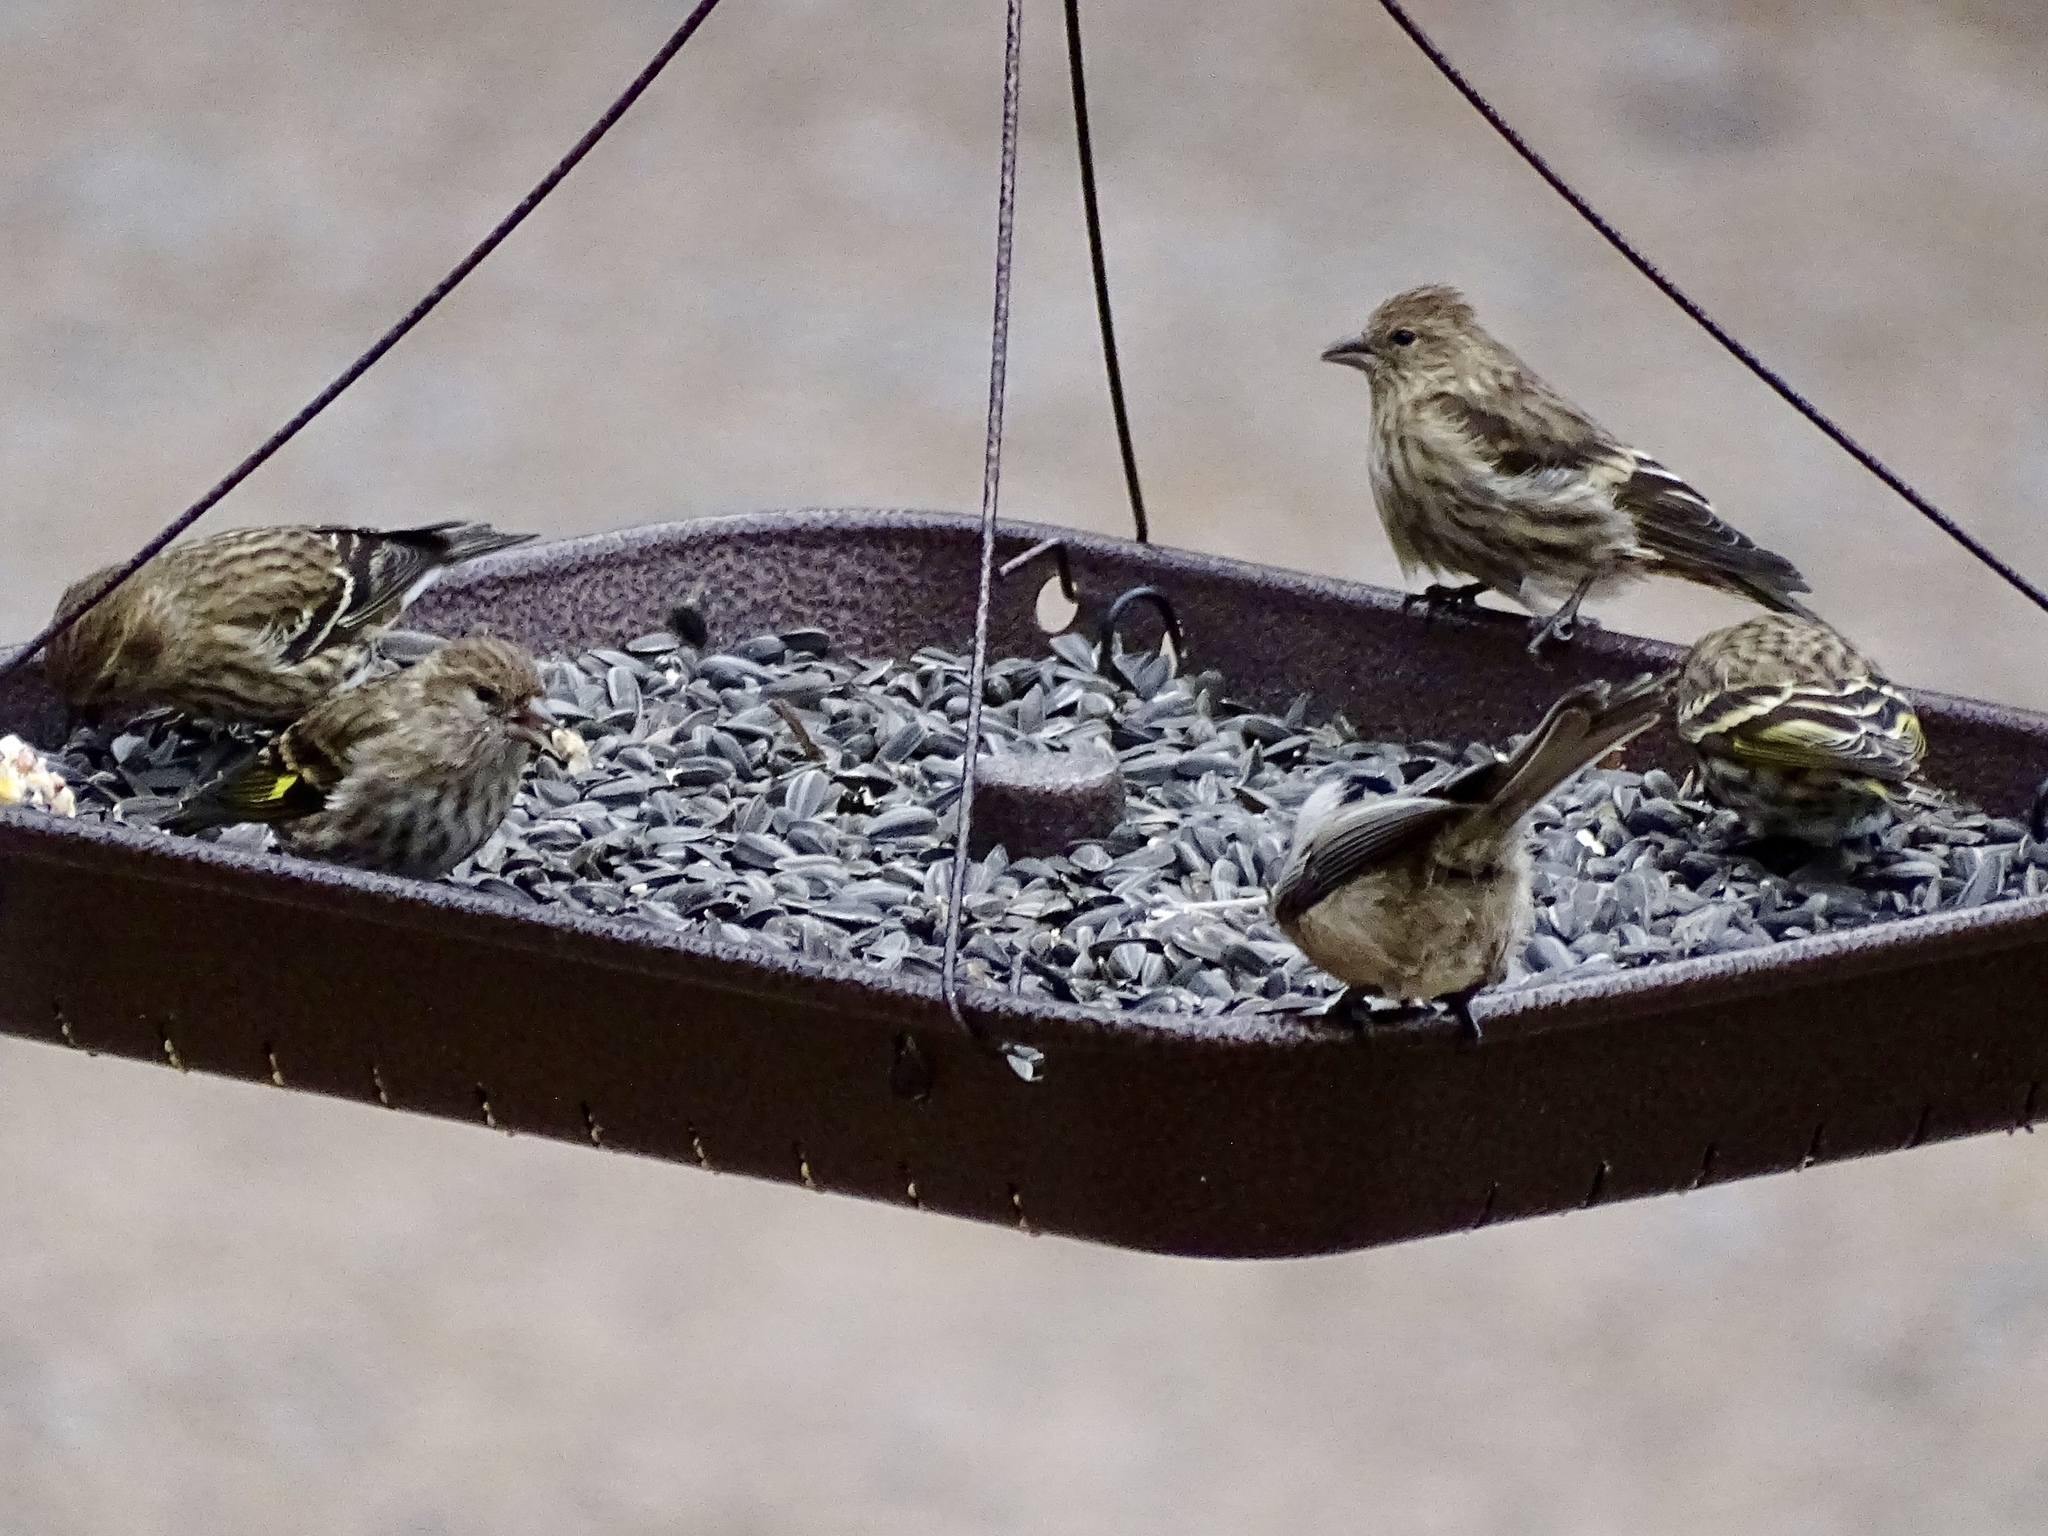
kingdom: Animalia
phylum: Chordata
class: Aves
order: Passeriformes
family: Fringillidae
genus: Spinus
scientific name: Spinus pinus
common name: Pine siskin
